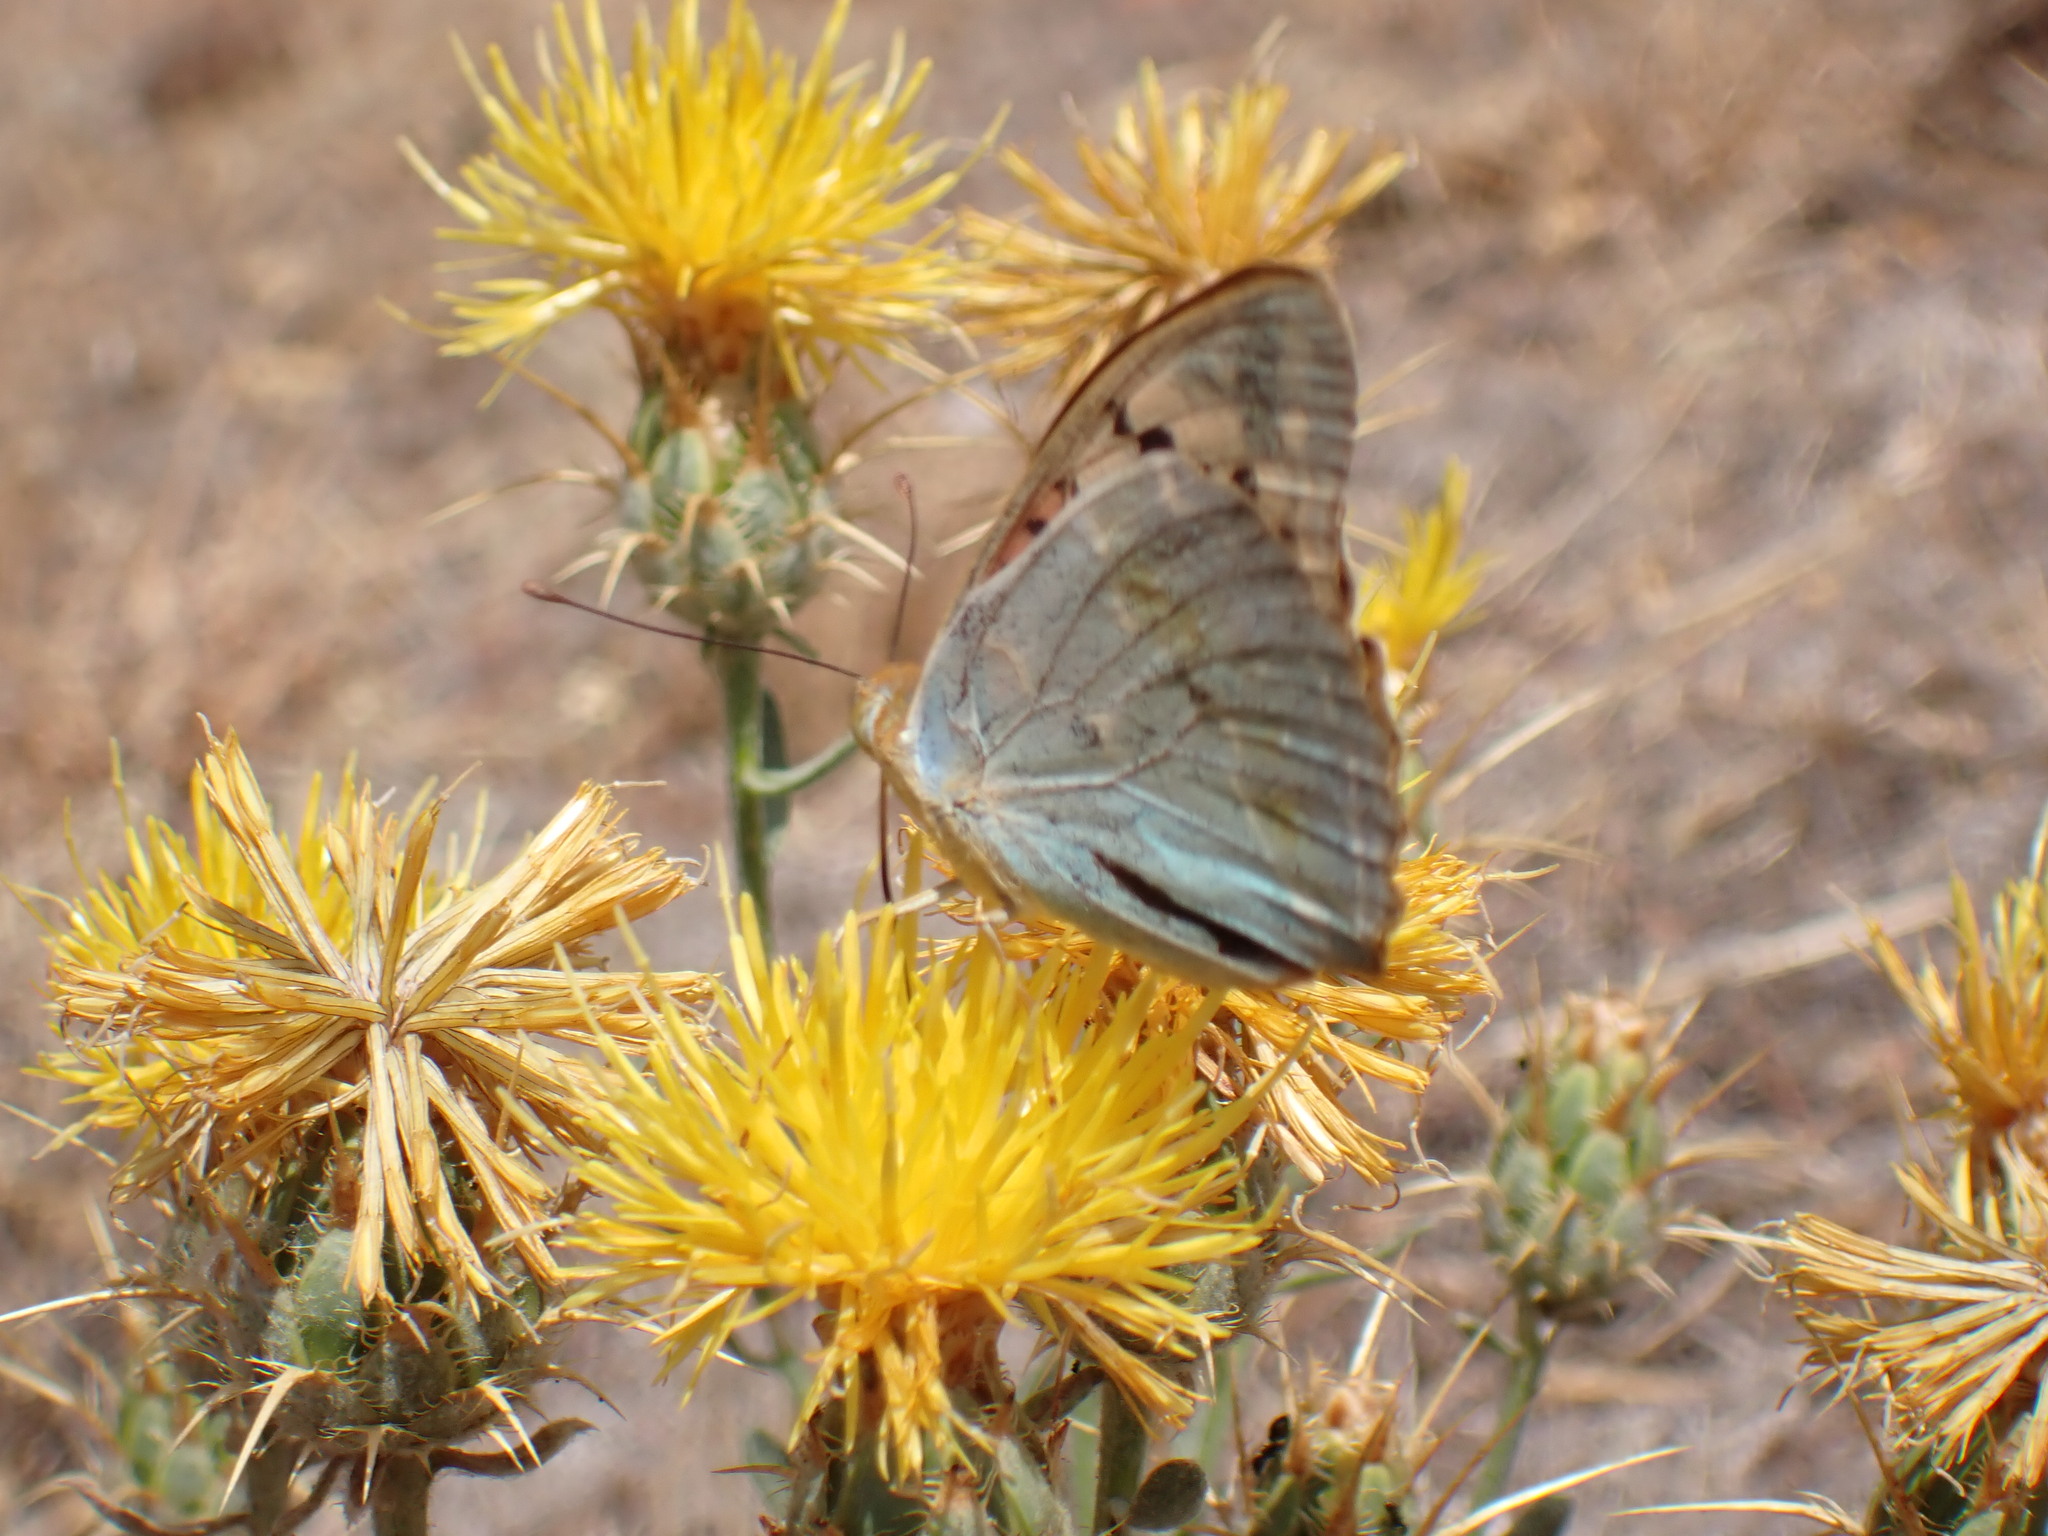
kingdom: Animalia
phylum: Arthropoda
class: Insecta
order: Lepidoptera
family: Nymphalidae
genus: Damora
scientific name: Damora pandora
